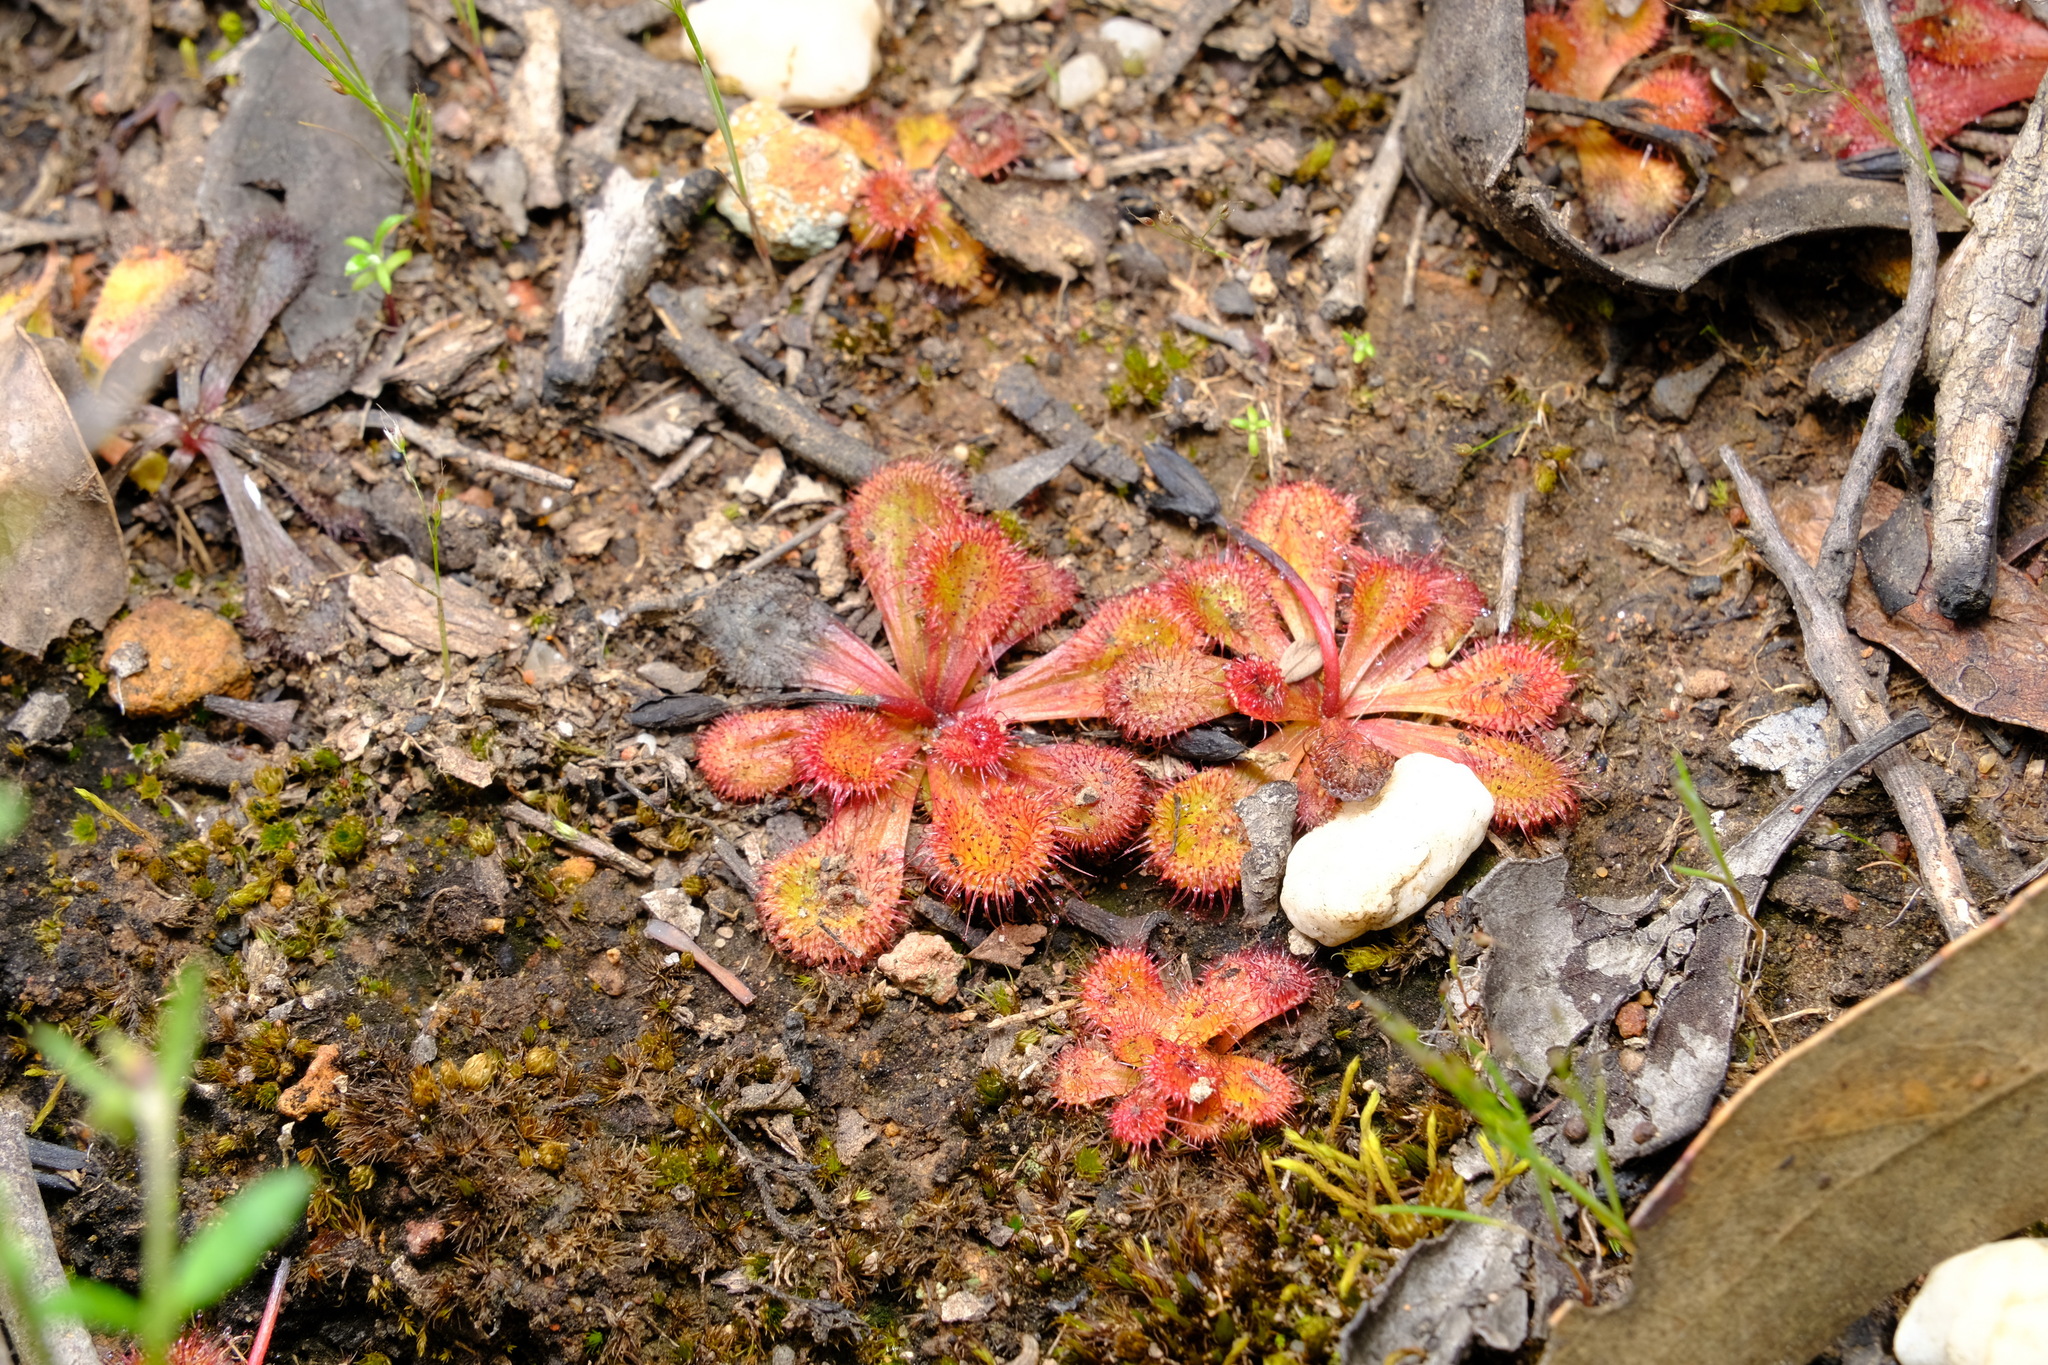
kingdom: Plantae
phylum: Tracheophyta
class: Magnoliopsida
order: Caryophyllales
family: Droseraceae
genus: Drosera
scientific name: Drosera aberrans
